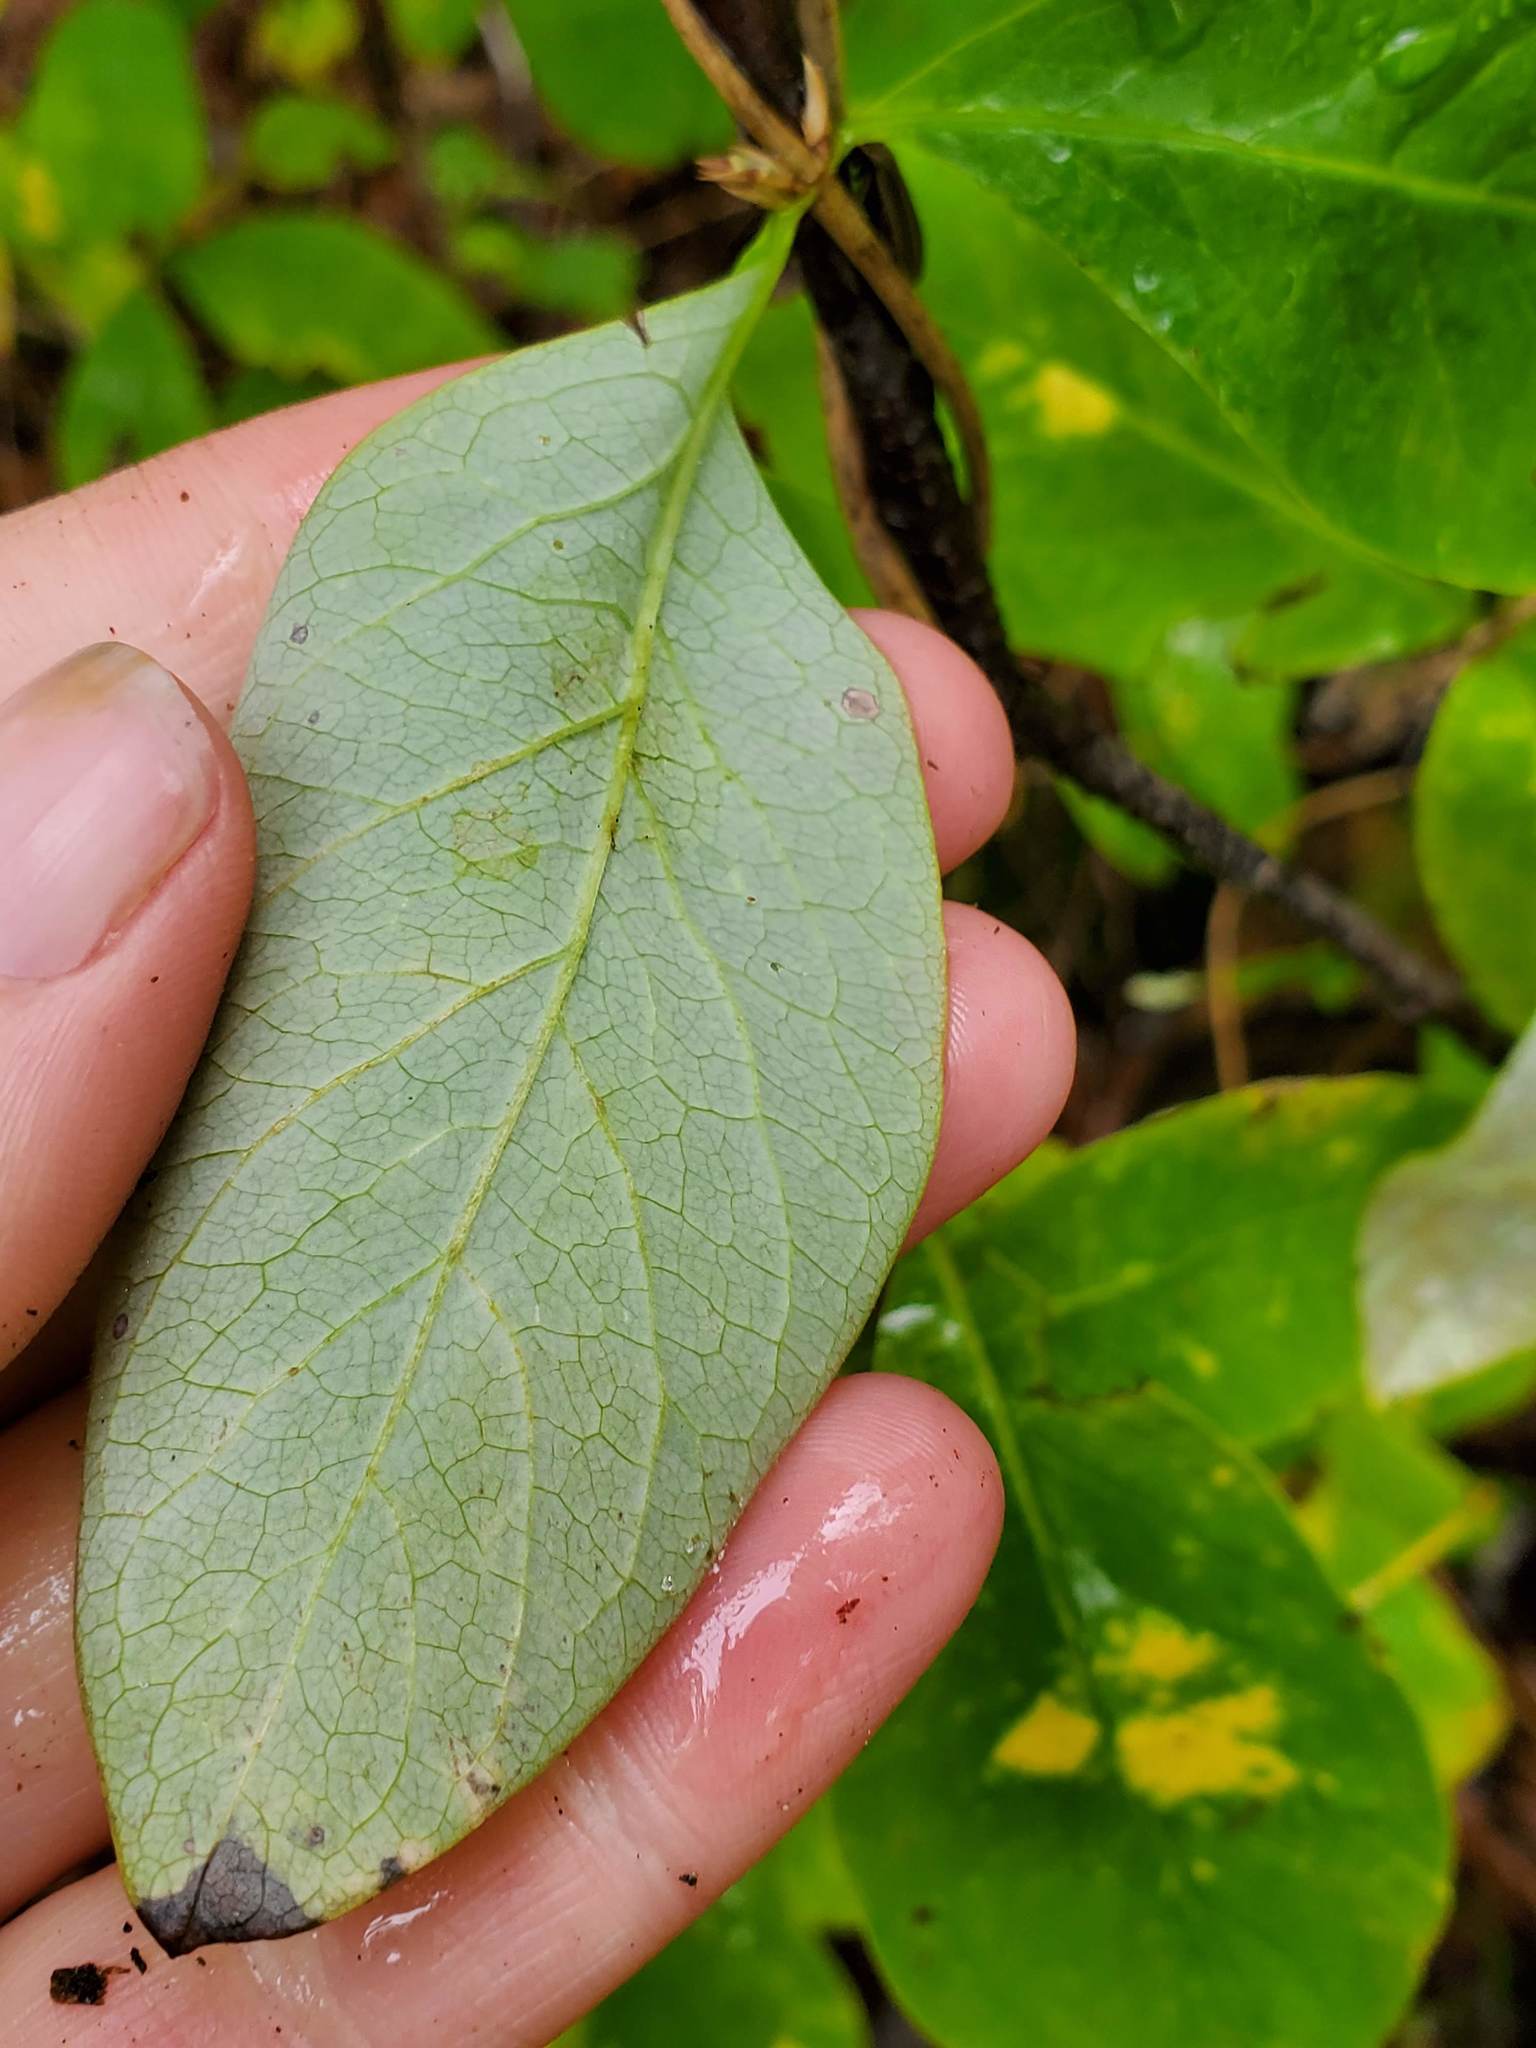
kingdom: Plantae
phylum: Tracheophyta
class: Magnoliopsida
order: Dipsacales
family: Caprifoliaceae
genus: Lonicera
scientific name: Lonicera dioica
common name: Limber honeysuckle
